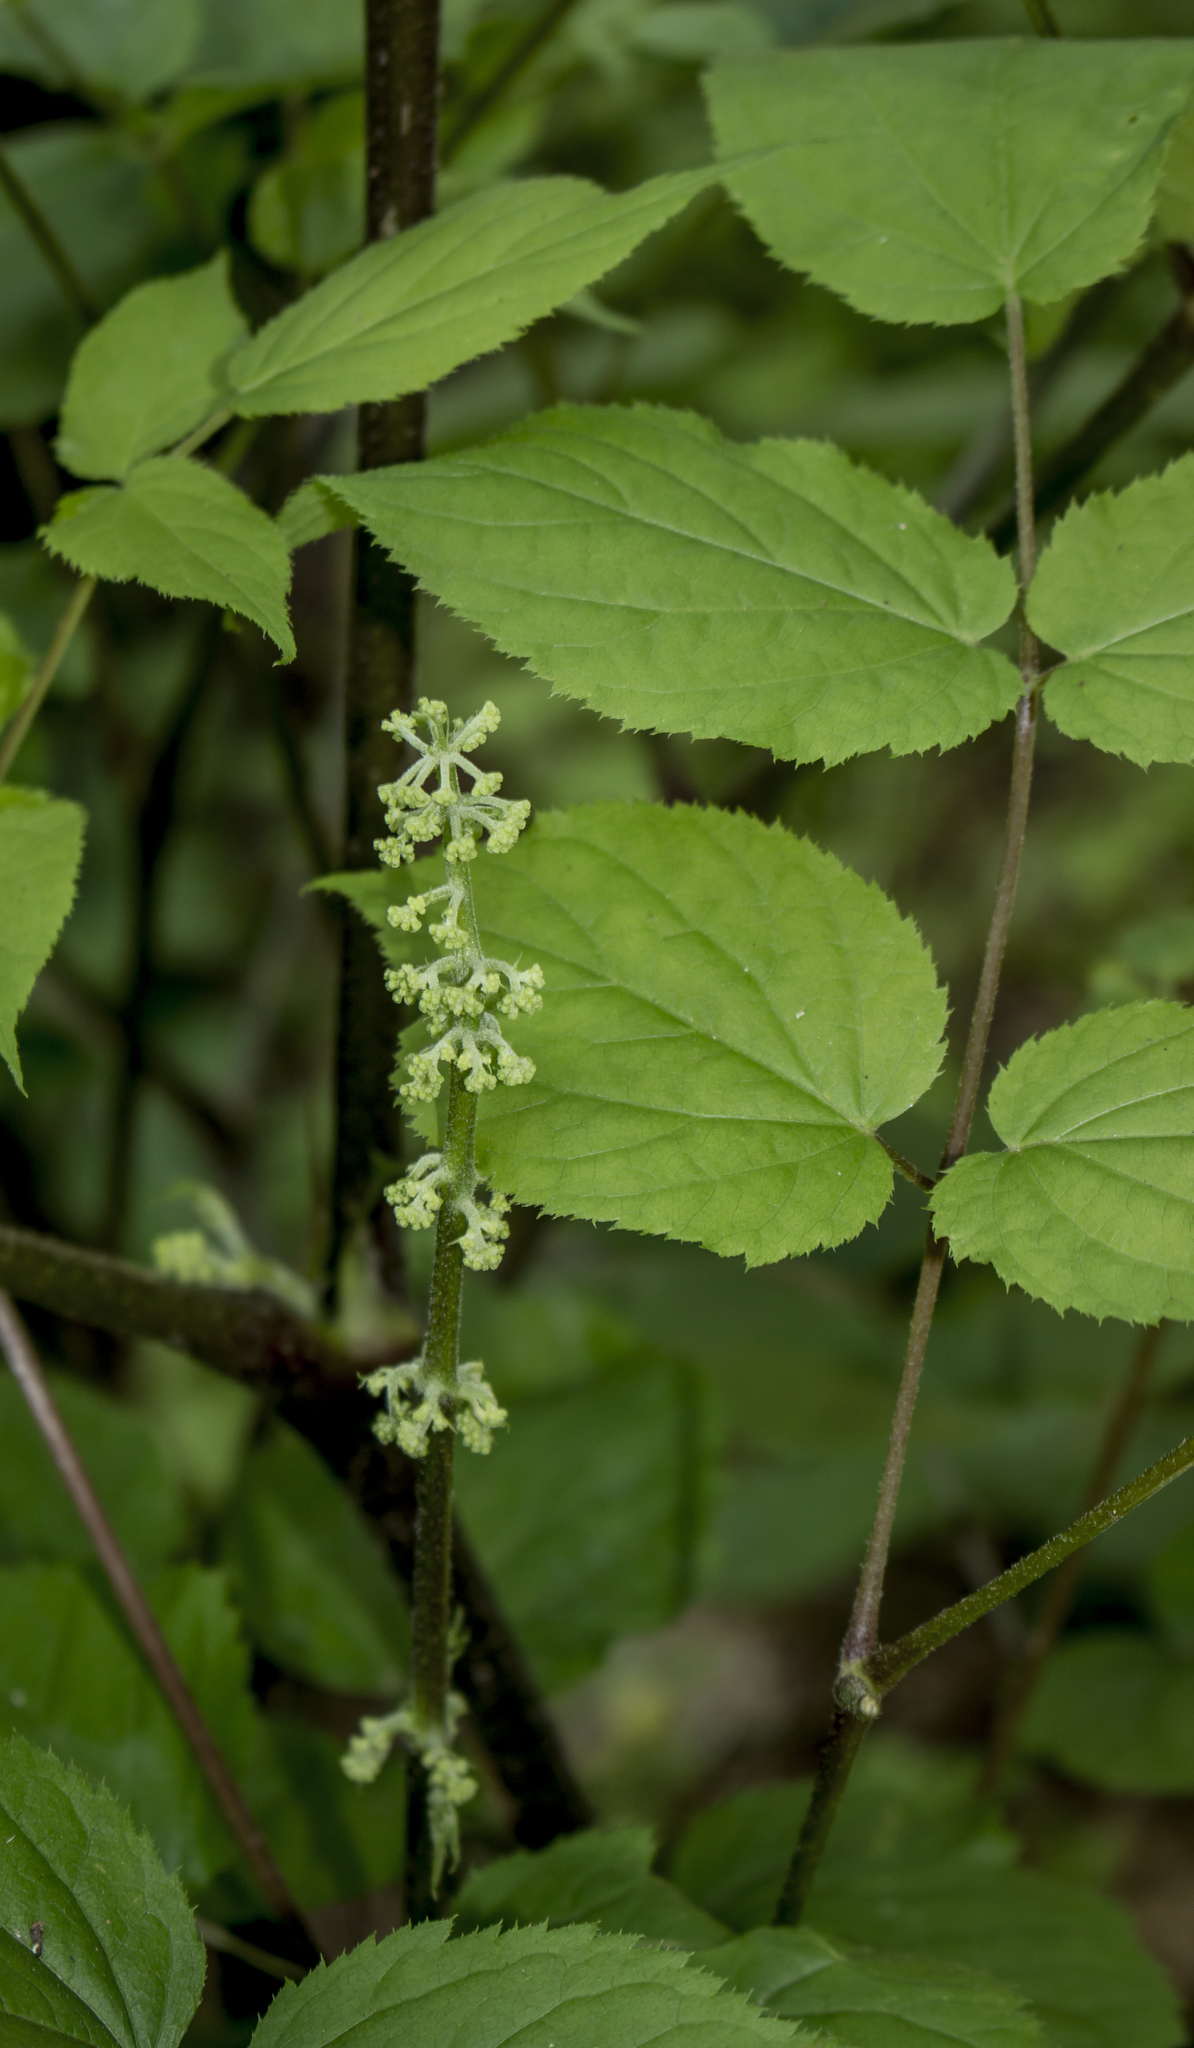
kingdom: Plantae
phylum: Tracheophyta
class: Magnoliopsida
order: Apiales
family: Araliaceae
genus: Aralia
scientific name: Aralia racemosa
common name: American-spikenard
